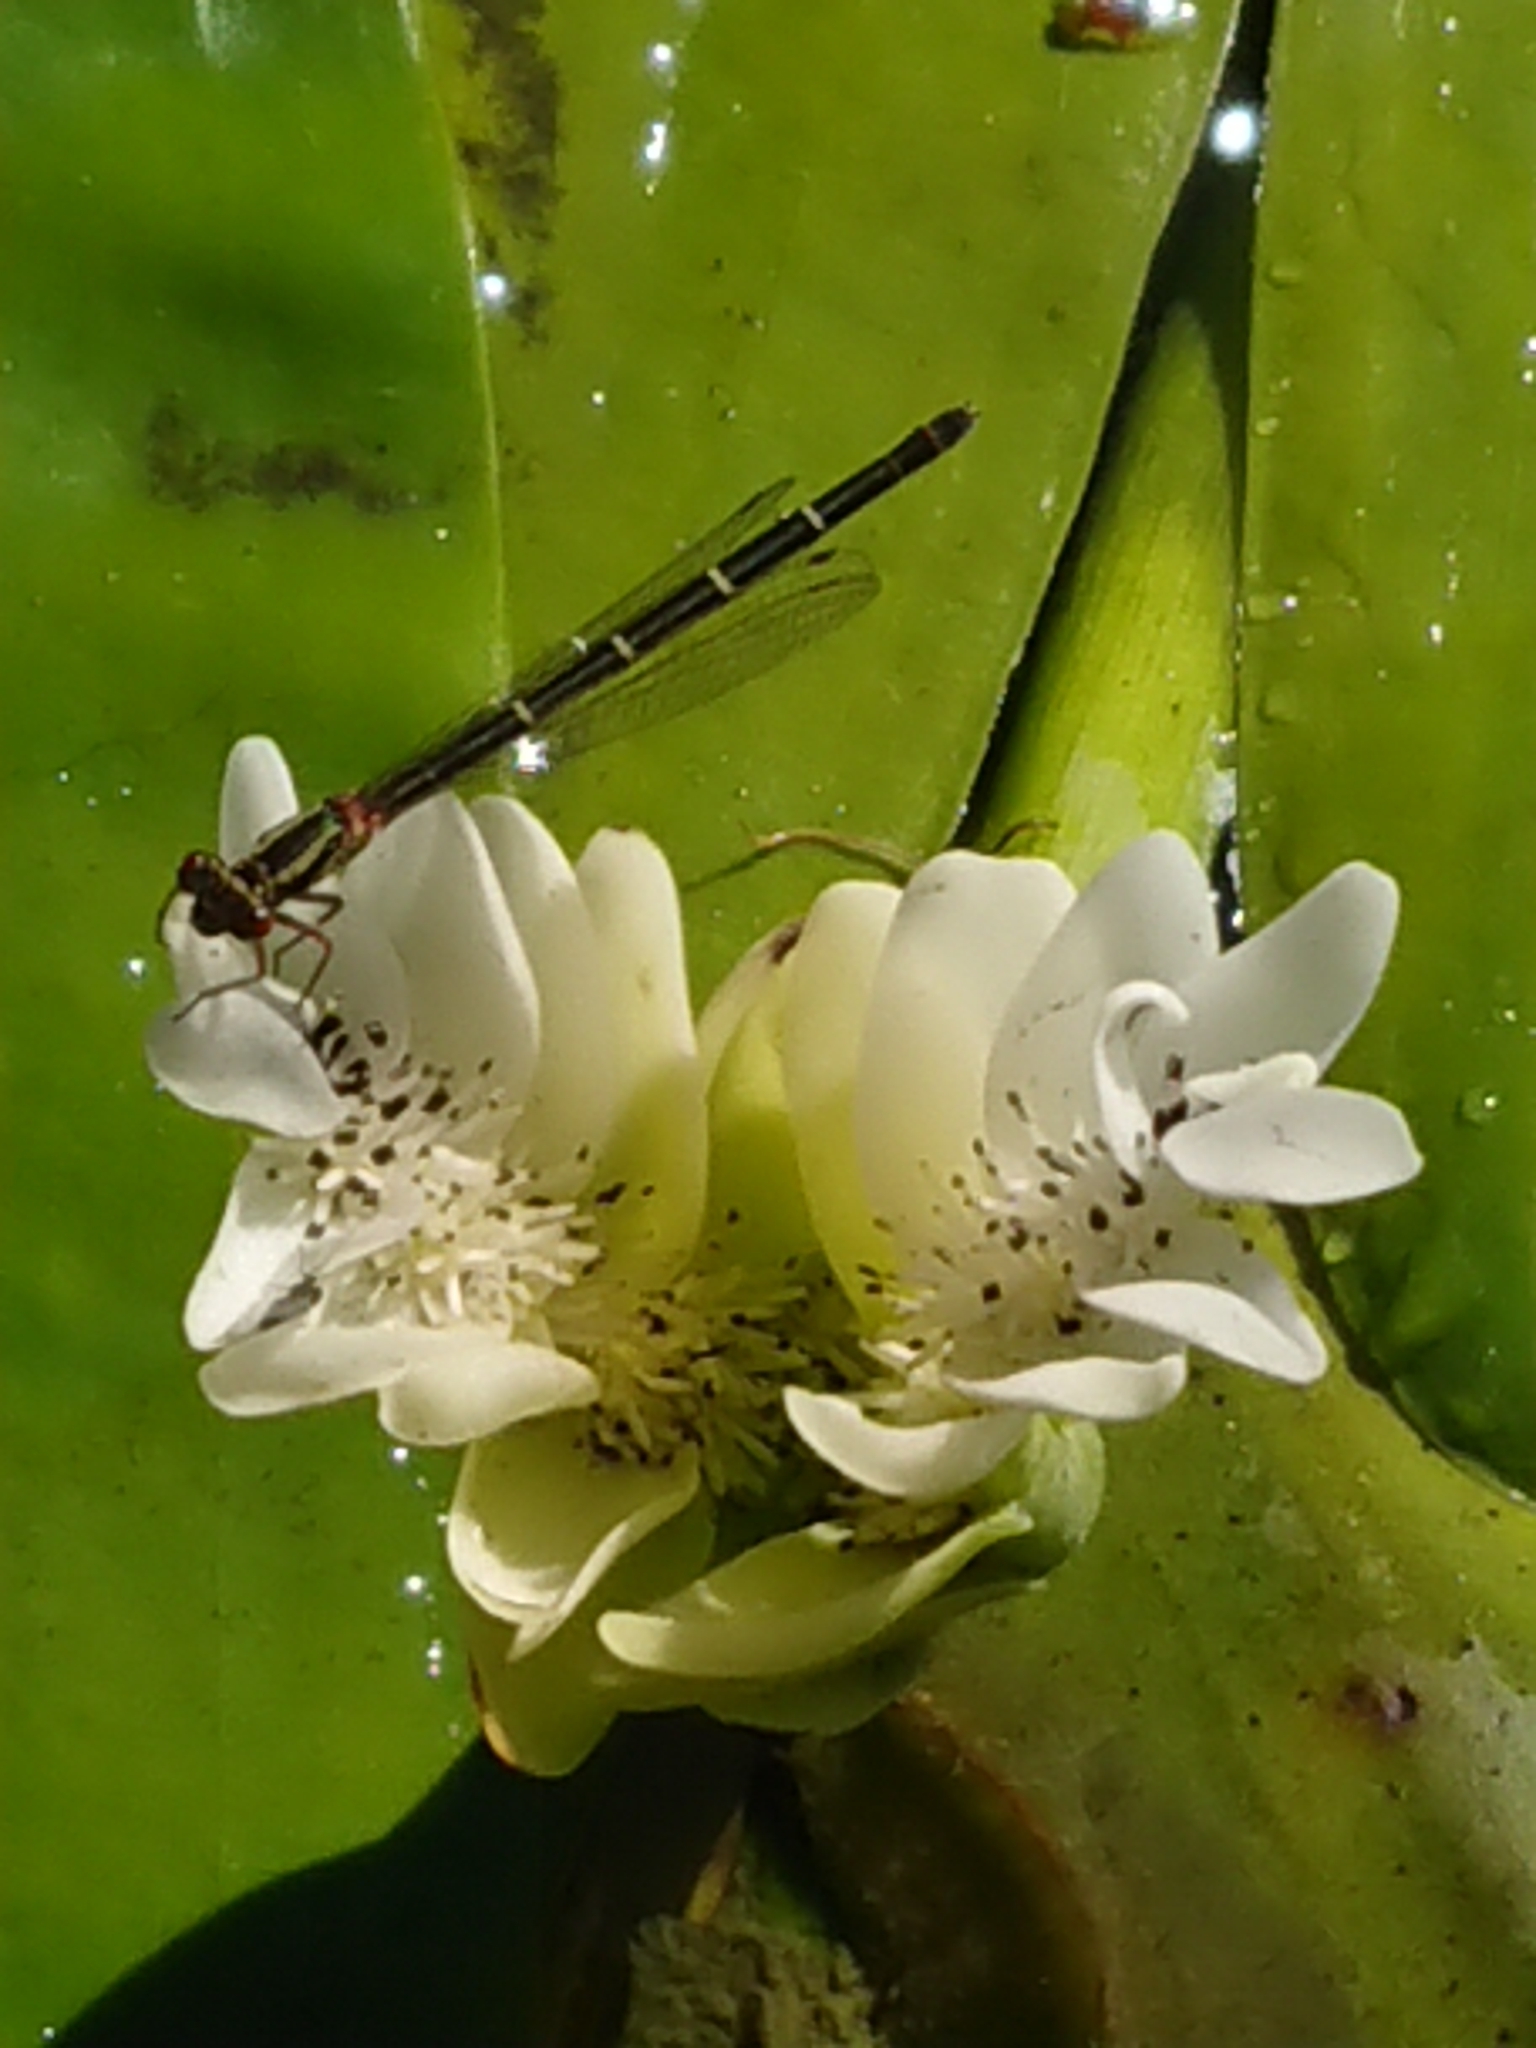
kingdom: Animalia
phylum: Arthropoda
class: Insecta
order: Odonata
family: Coenagrionidae
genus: Xanthocnemis
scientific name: Xanthocnemis zealandica
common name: Common redcoat damselfly
